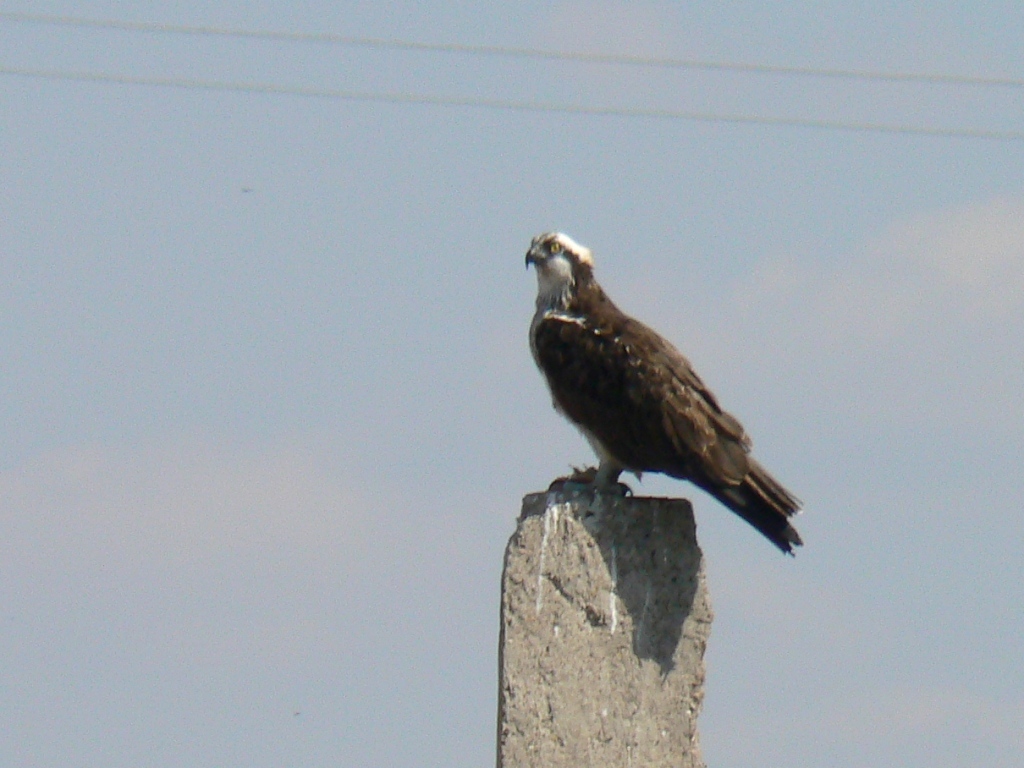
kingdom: Animalia
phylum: Chordata
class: Aves
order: Accipitriformes
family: Pandionidae
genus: Pandion
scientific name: Pandion haliaetus
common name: Osprey
